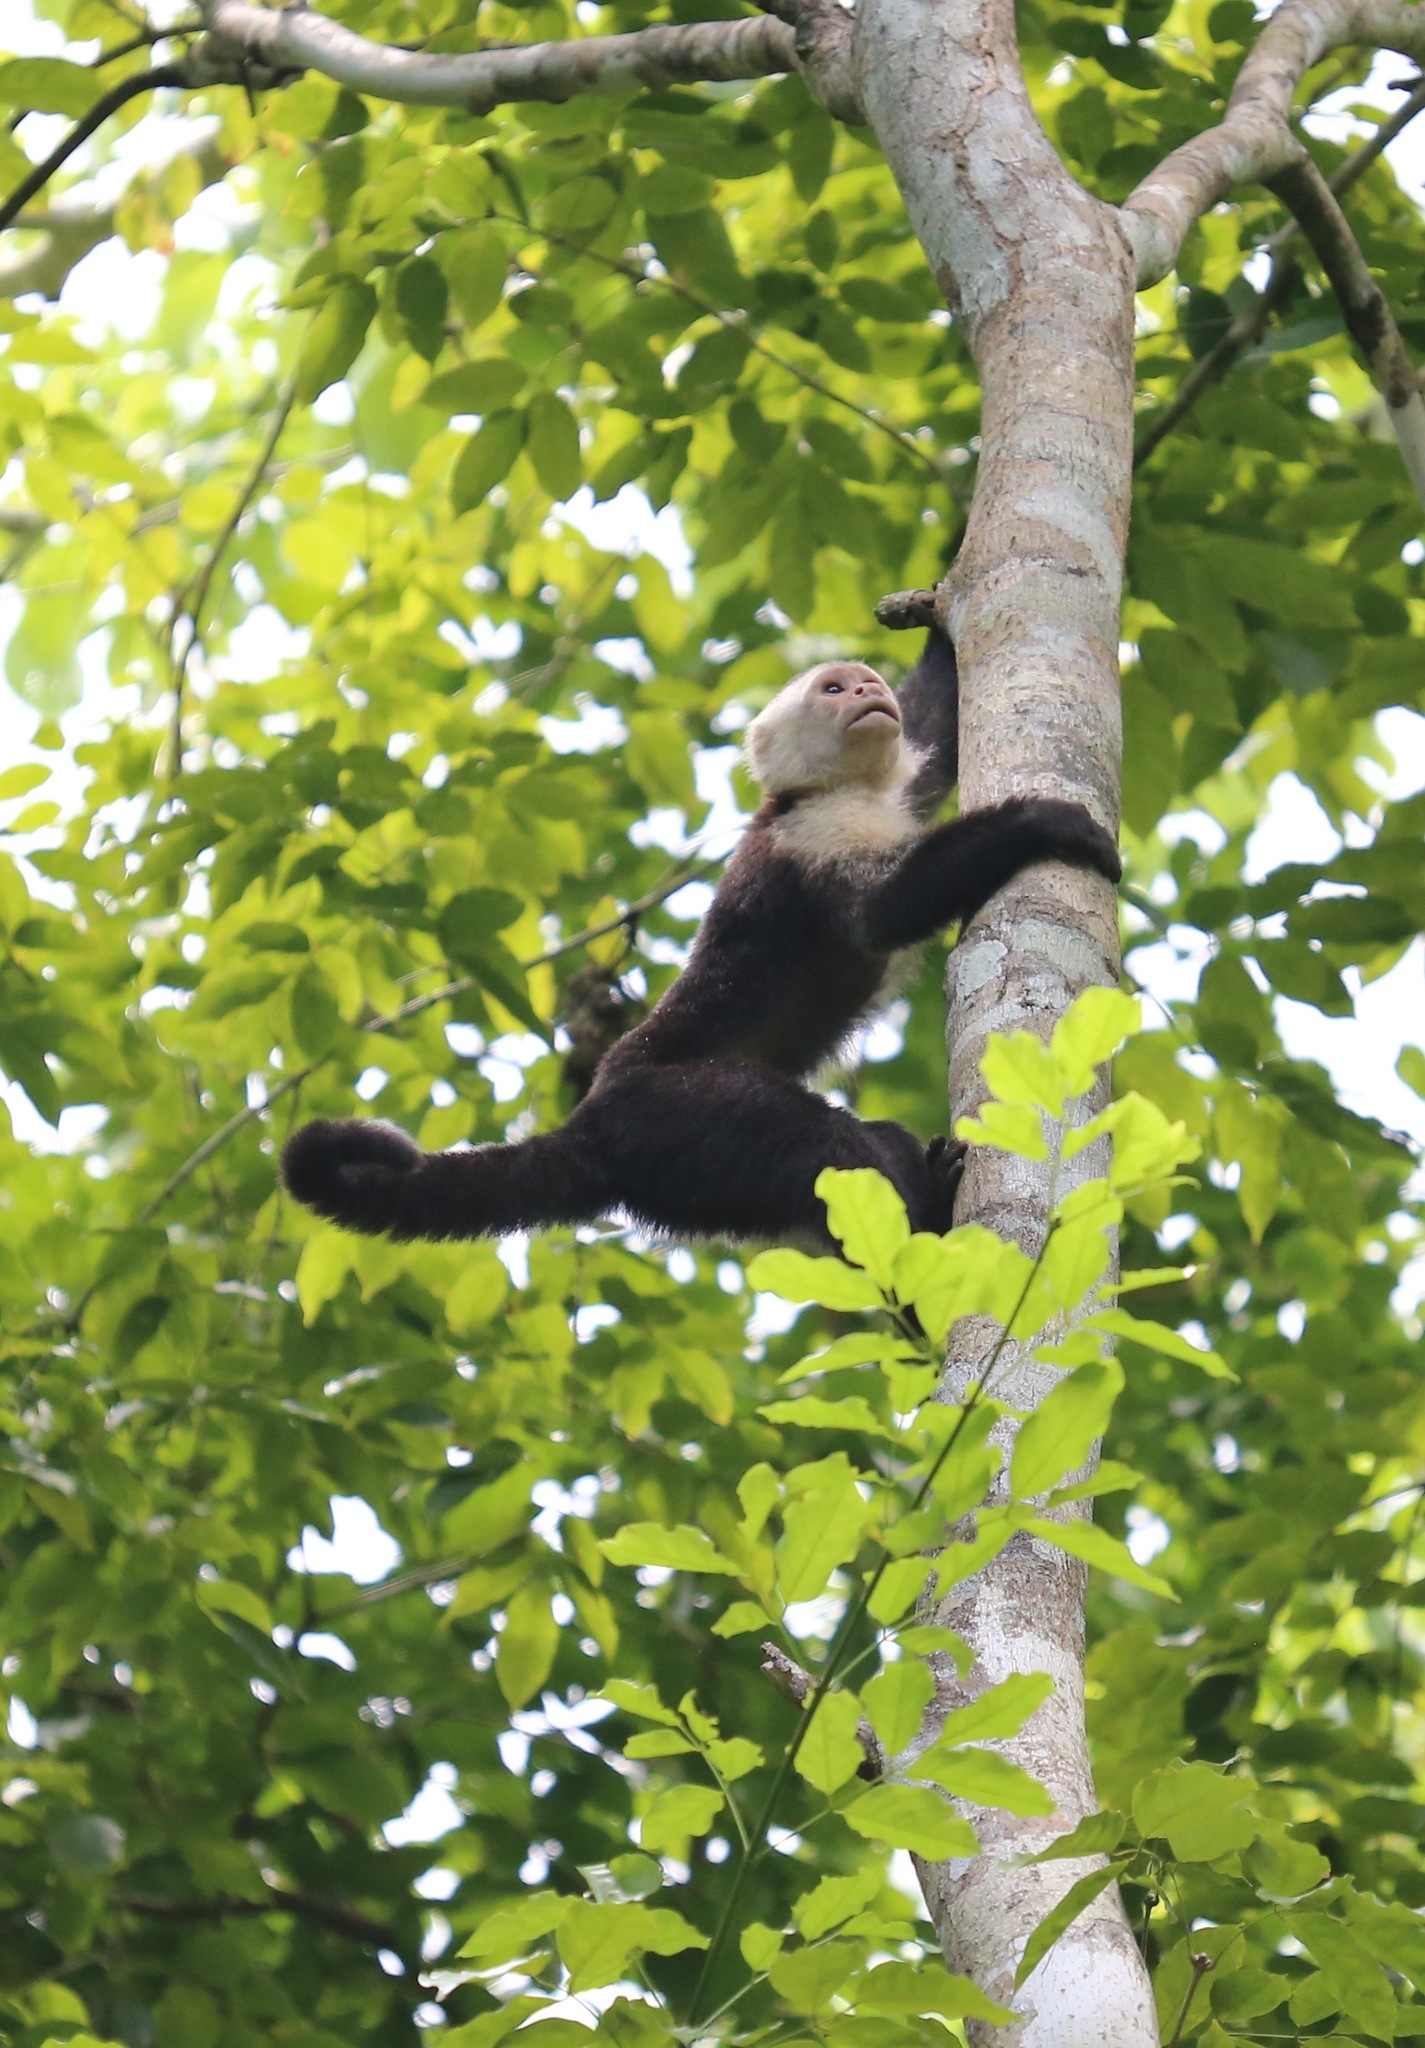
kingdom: Animalia
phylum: Chordata
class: Mammalia
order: Primates
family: Cebidae
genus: Cebus
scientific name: Cebus imitator
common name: Panamanian white-faced capuchin
